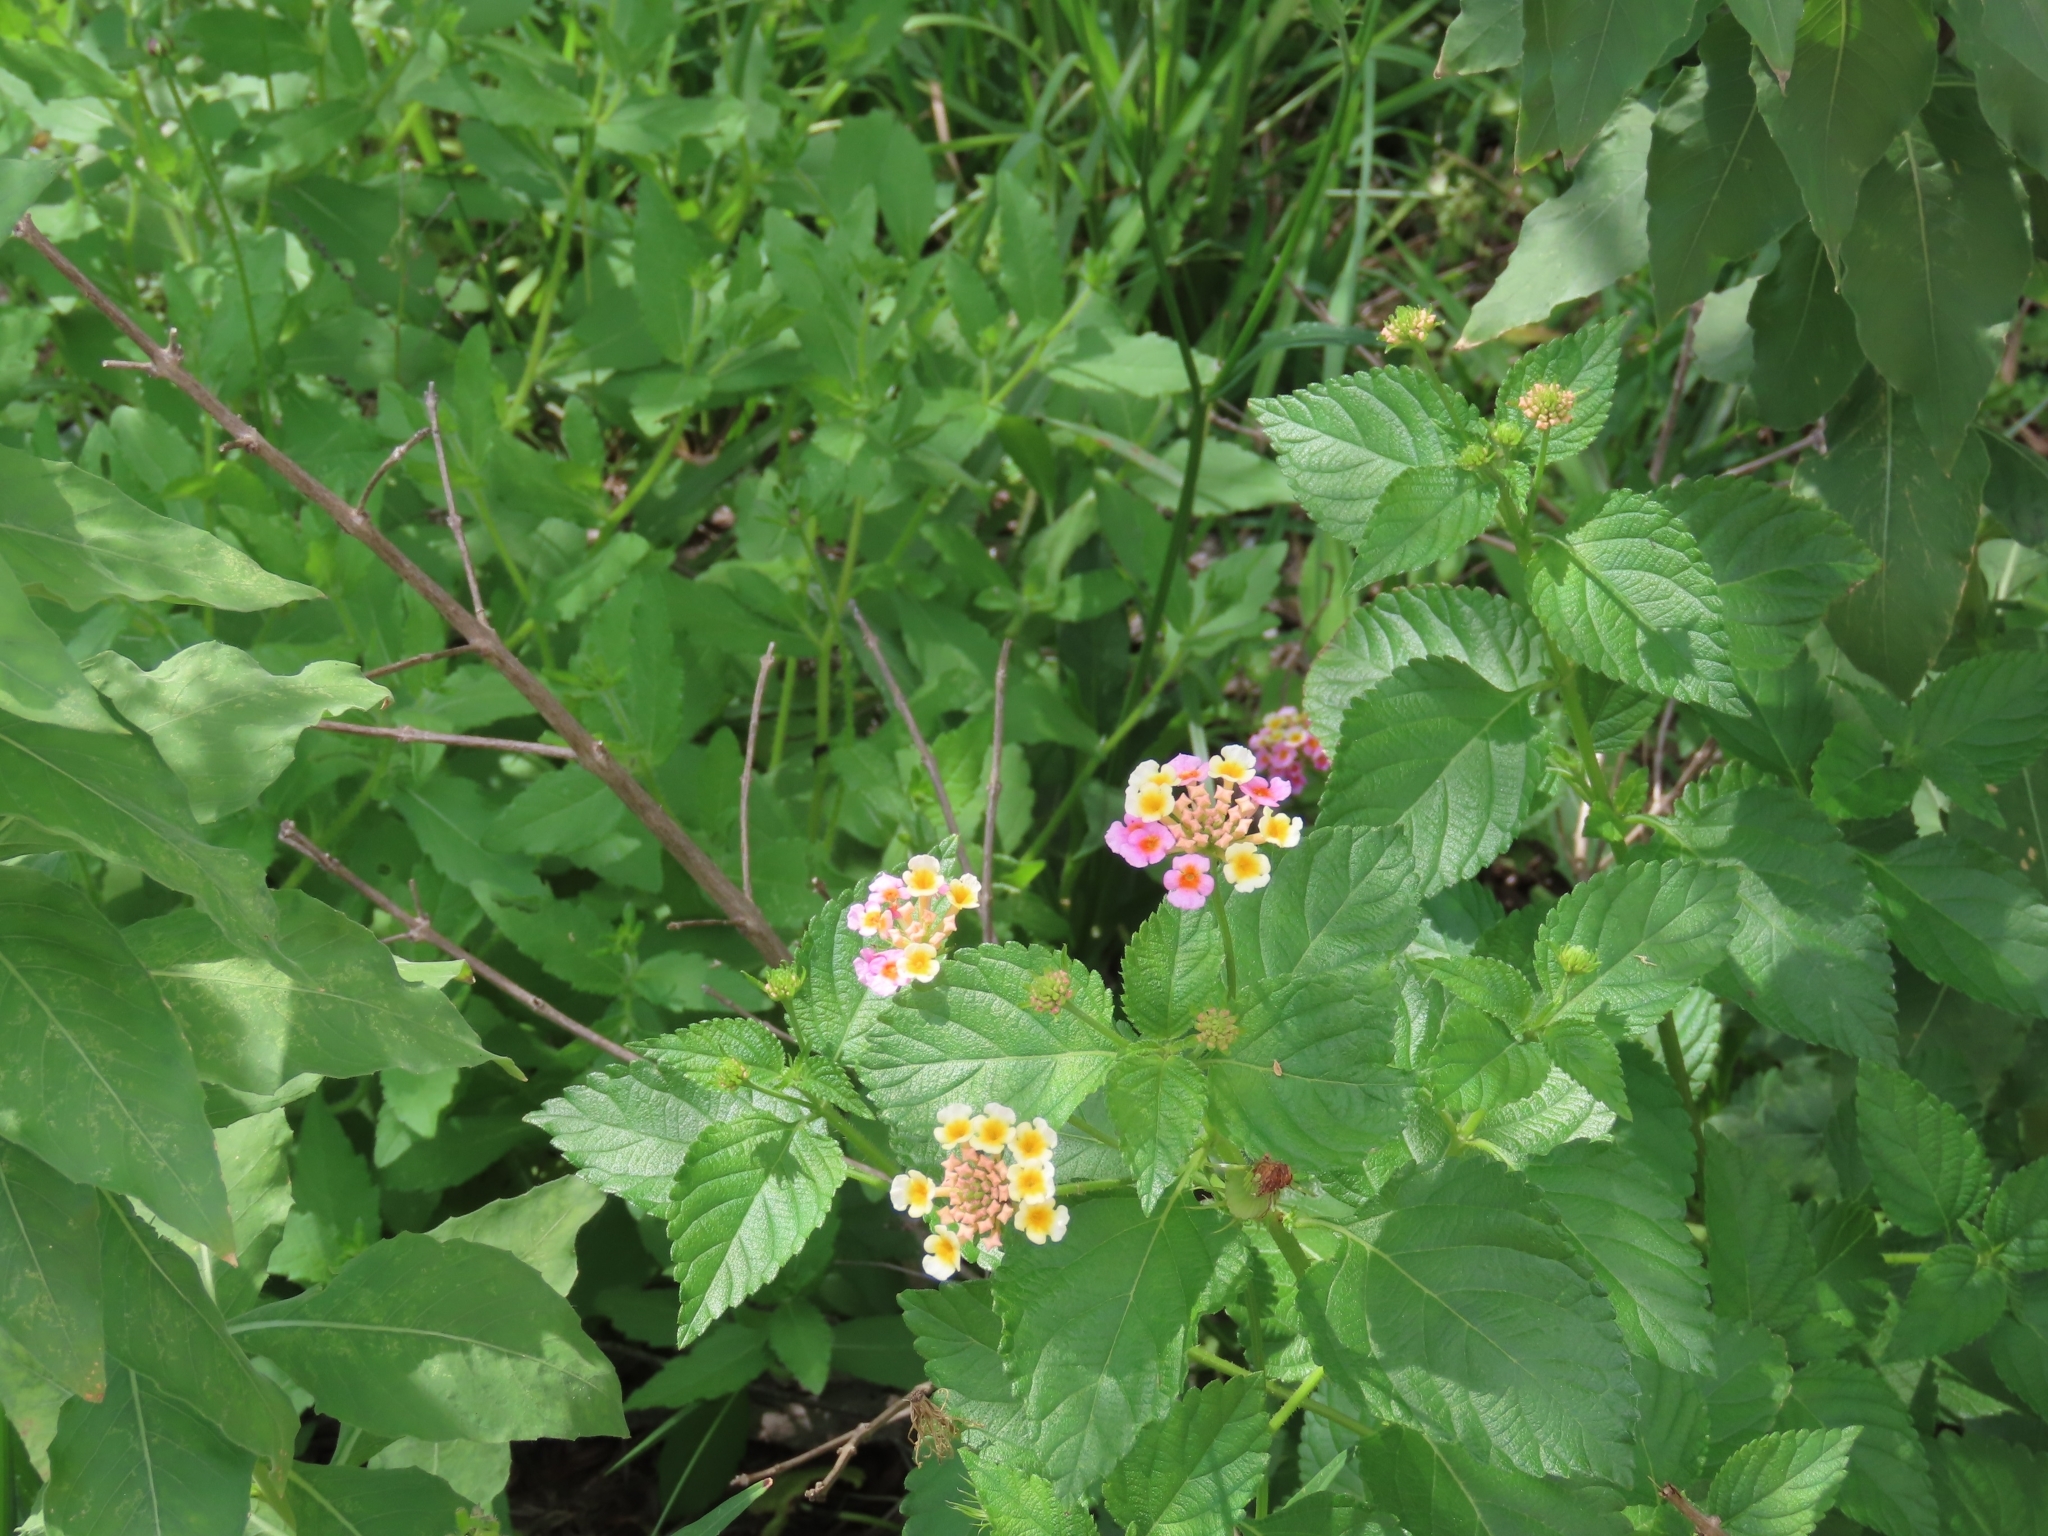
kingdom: Plantae
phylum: Tracheophyta
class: Magnoliopsida
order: Lamiales
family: Verbenaceae
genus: Lantana
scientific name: Lantana strigocamara
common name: Lantana
